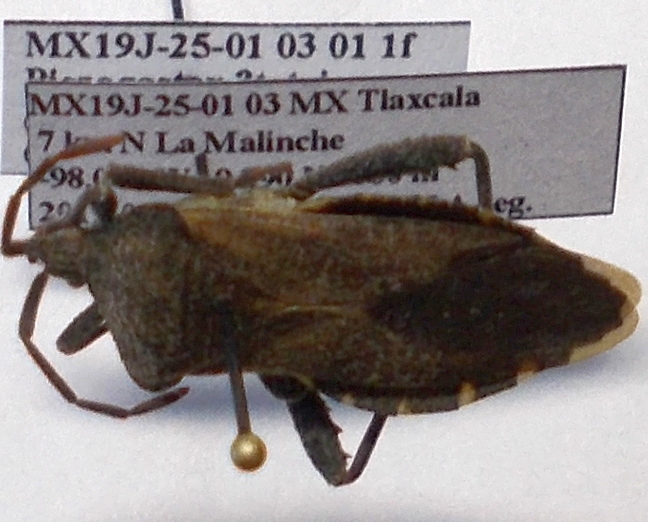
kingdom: Animalia
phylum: Arthropoda
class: Insecta
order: Hemiptera
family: Coreidae
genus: Piezogaster
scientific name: Piezogaster tetricus
